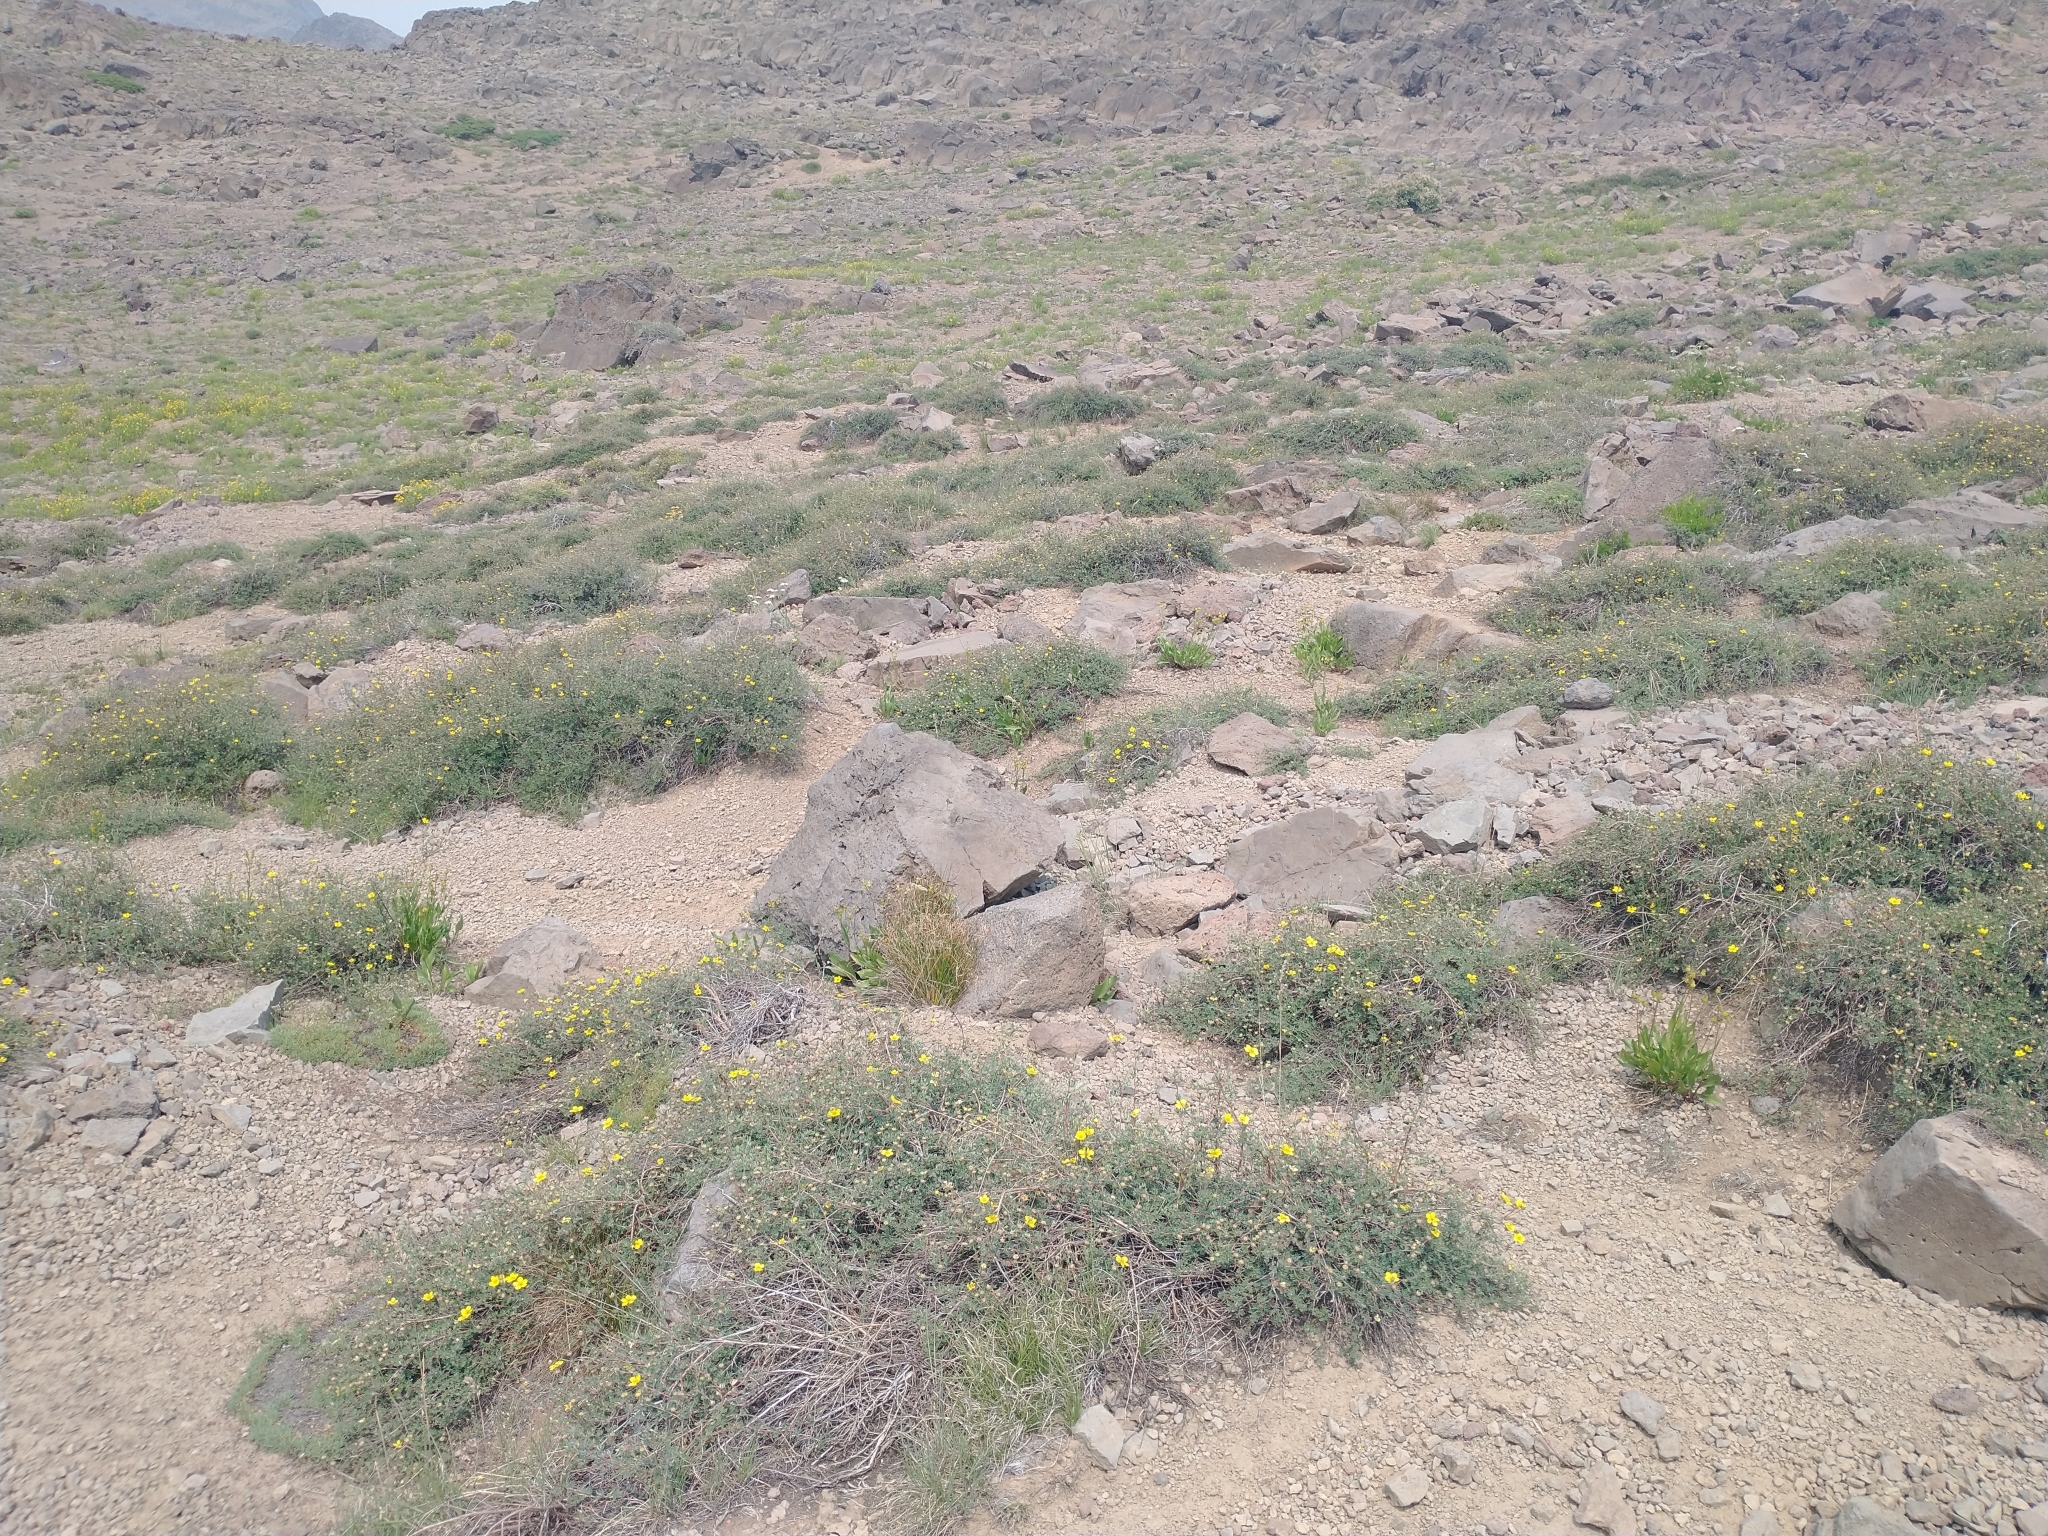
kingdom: Plantae
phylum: Tracheophyta
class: Magnoliopsida
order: Rosales
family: Rosaceae
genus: Dasiphora
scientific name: Dasiphora fruticosa
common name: Shrubby cinquefoil
